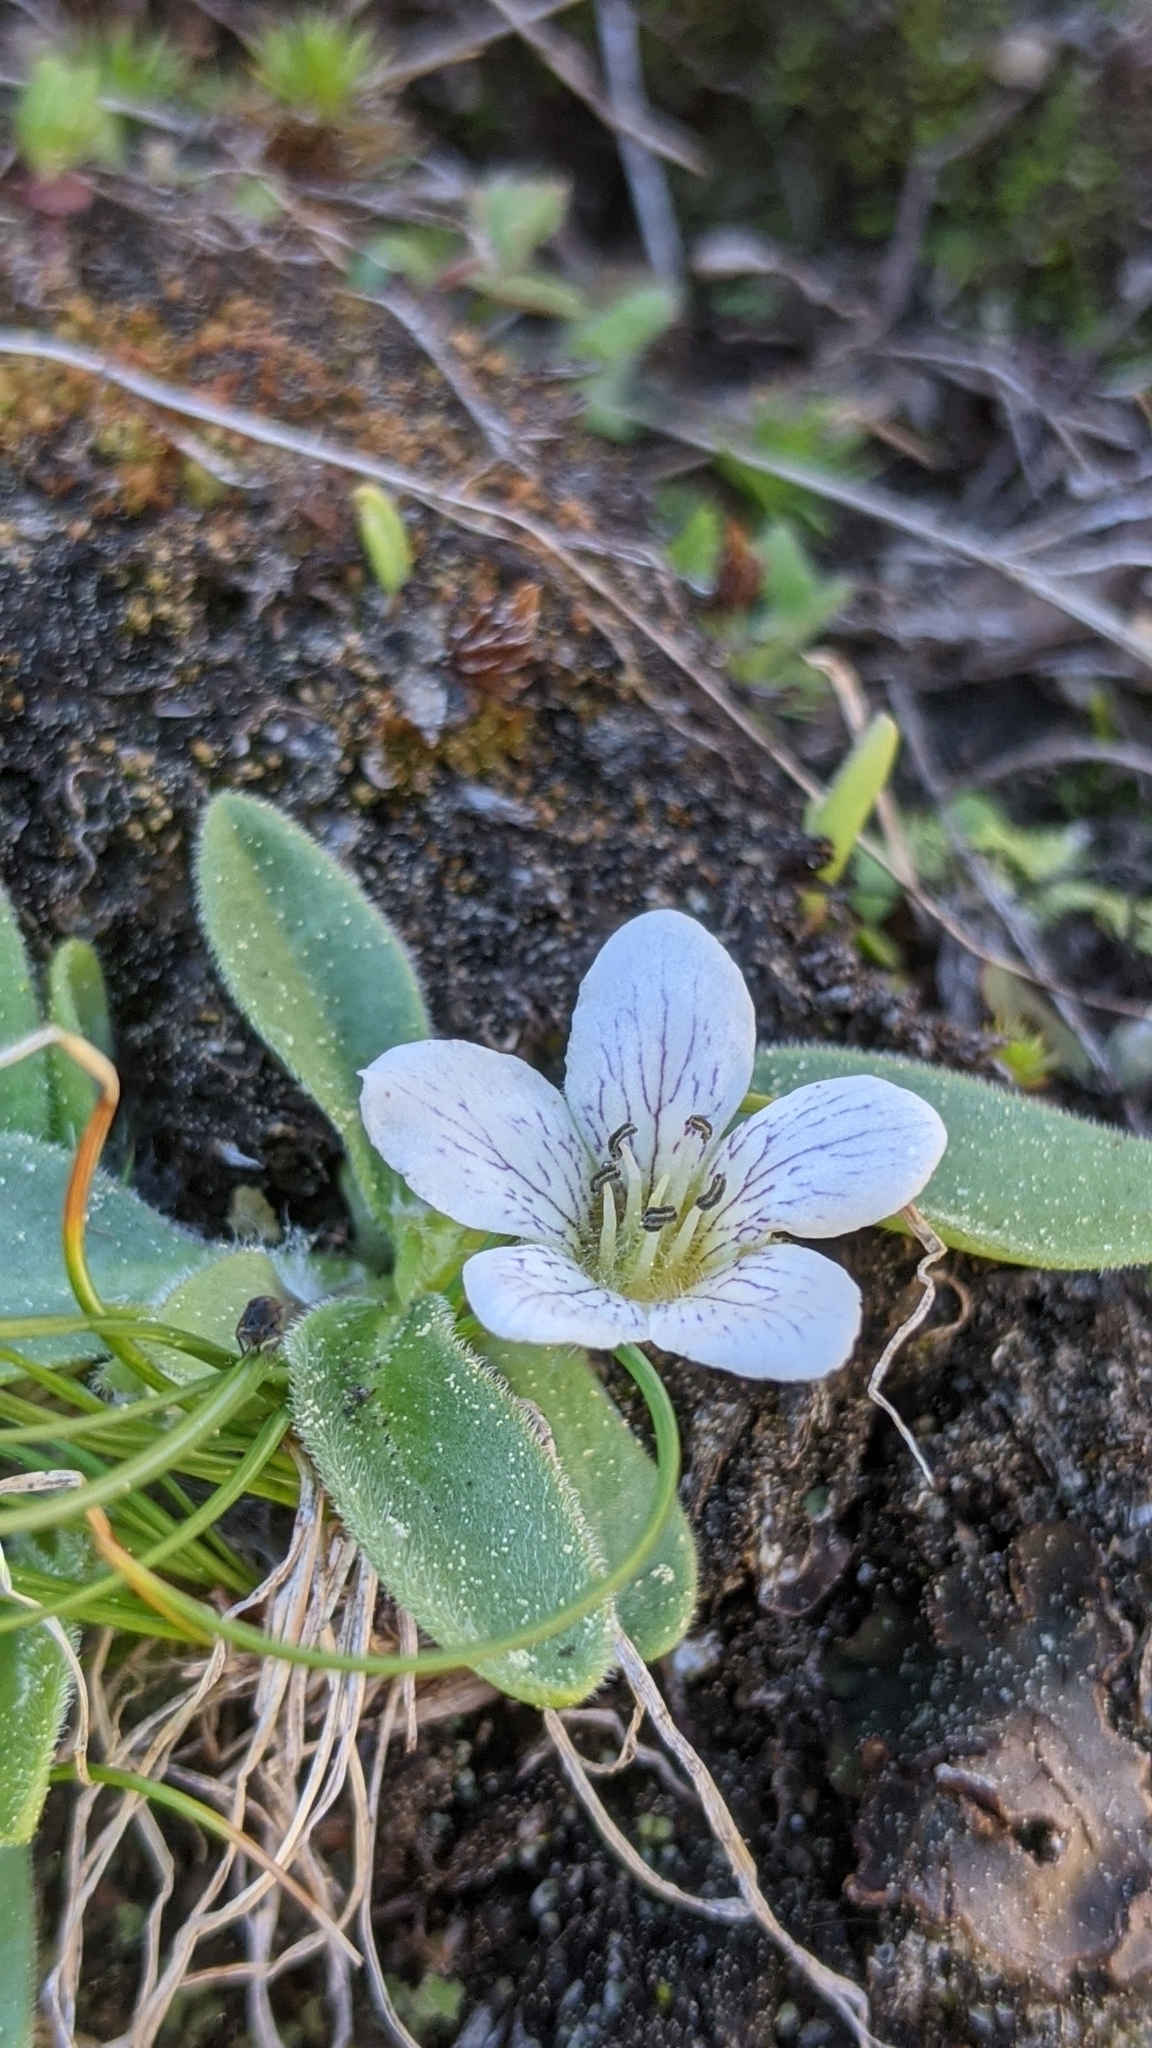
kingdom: Plantae
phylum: Tracheophyta
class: Magnoliopsida
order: Boraginales
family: Hydrophyllaceae
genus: Hesperochiron
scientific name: Hesperochiron californicus
